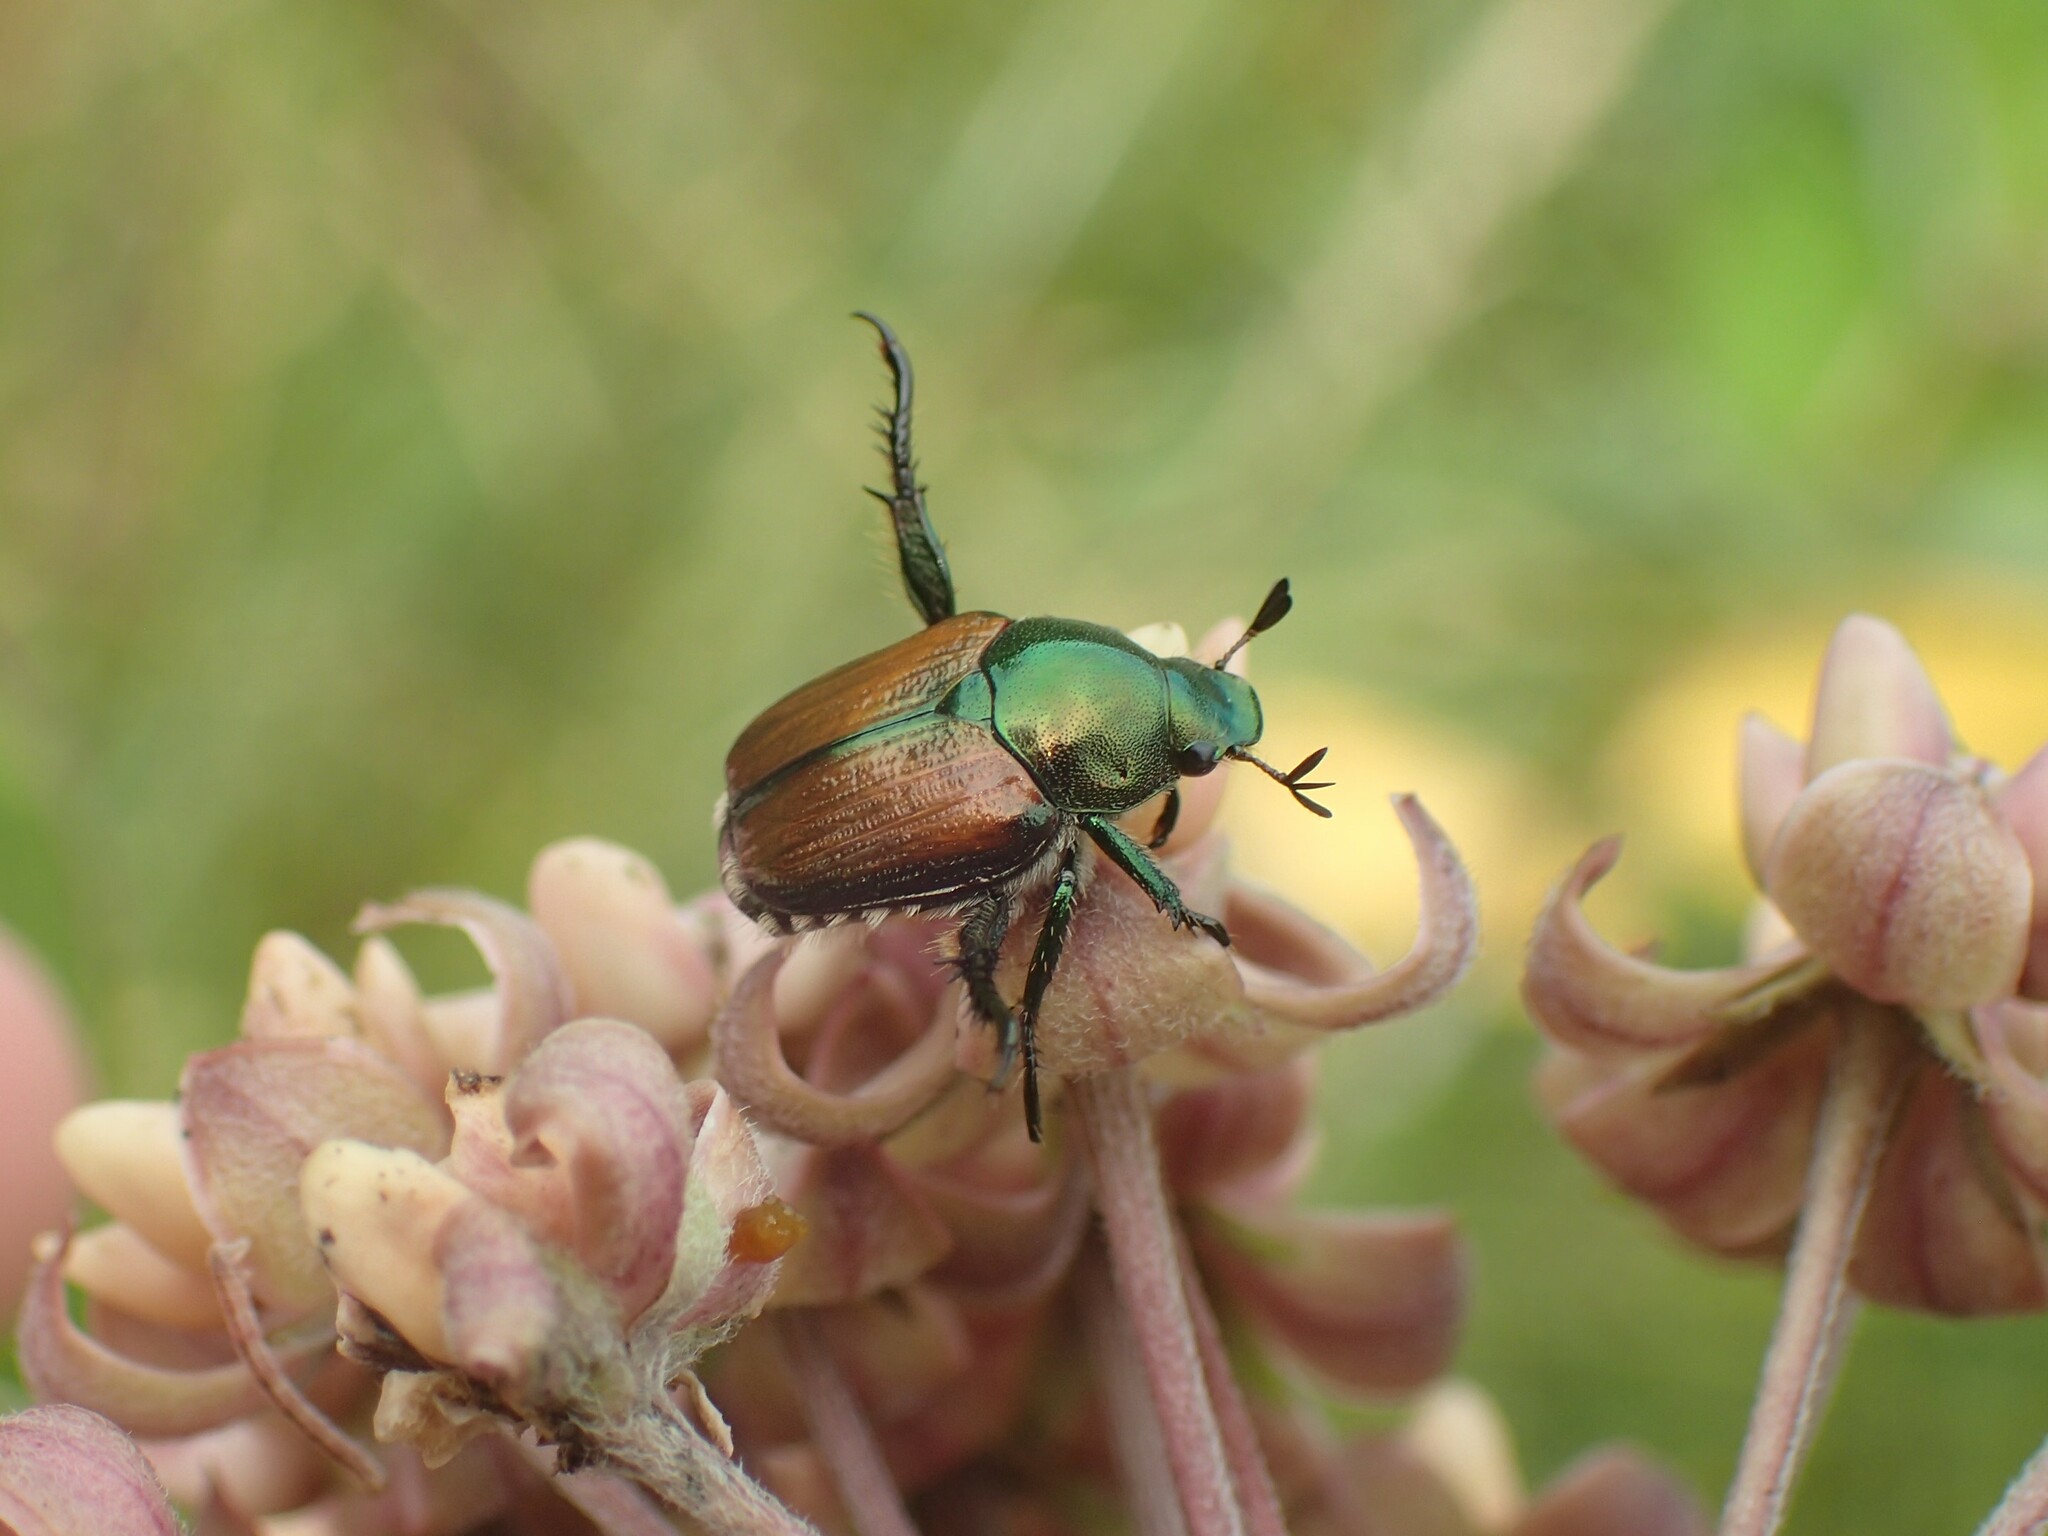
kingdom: Animalia
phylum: Arthropoda
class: Insecta
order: Coleoptera
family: Scarabaeidae
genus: Popillia
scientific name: Popillia japonica
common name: Japanese beetle
